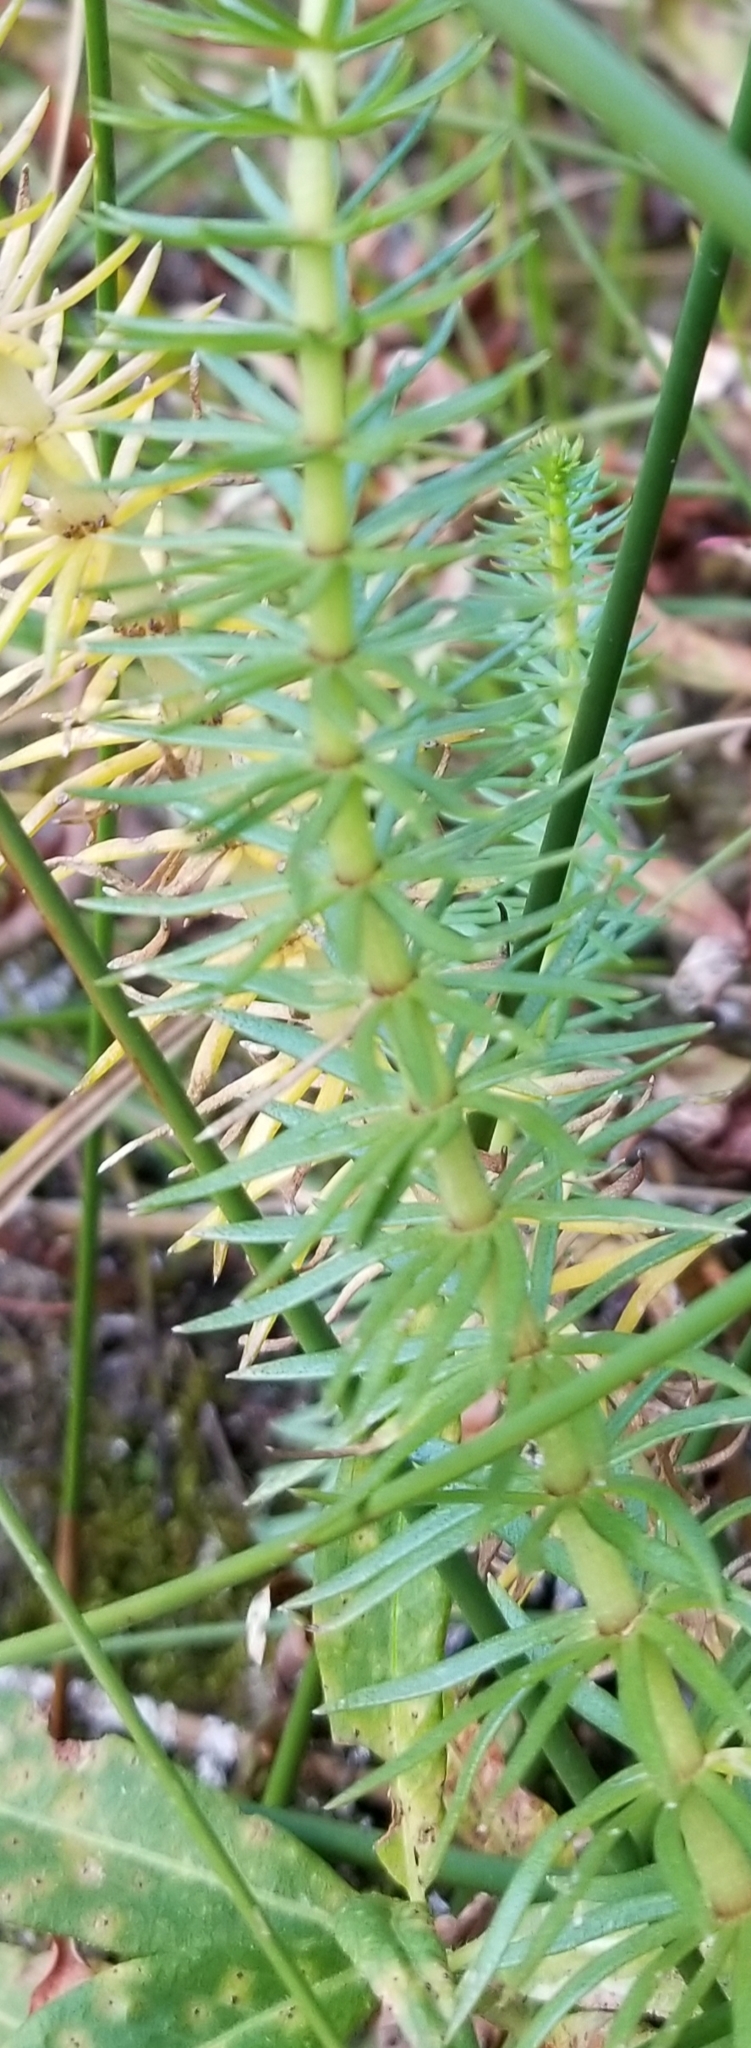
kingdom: Plantae
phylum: Tracheophyta
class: Magnoliopsida
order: Lamiales
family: Plantaginaceae
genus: Hippuris
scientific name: Hippuris vulgaris
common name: Mare's-tail
